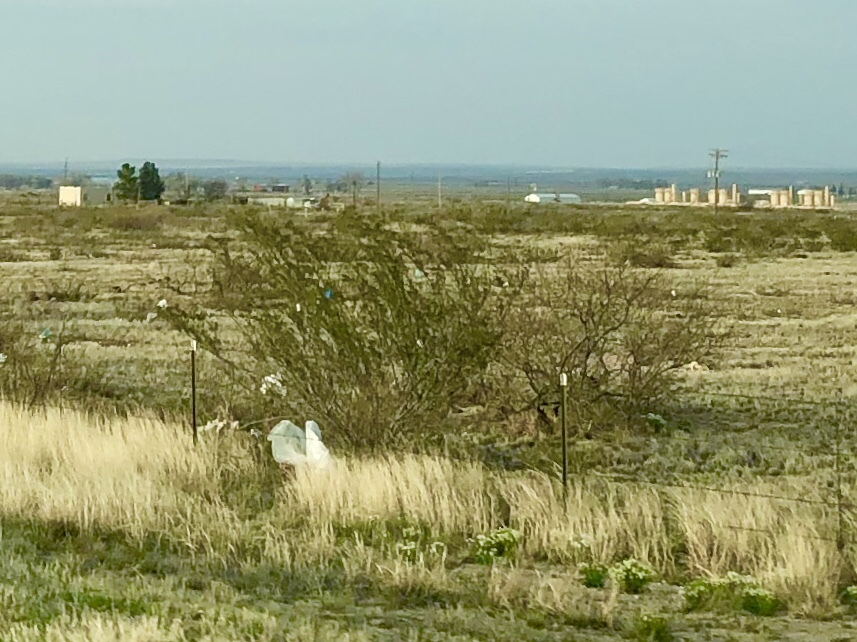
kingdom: Plantae
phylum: Tracheophyta
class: Magnoliopsida
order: Zygophyllales
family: Zygophyllaceae
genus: Larrea
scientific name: Larrea tridentata
